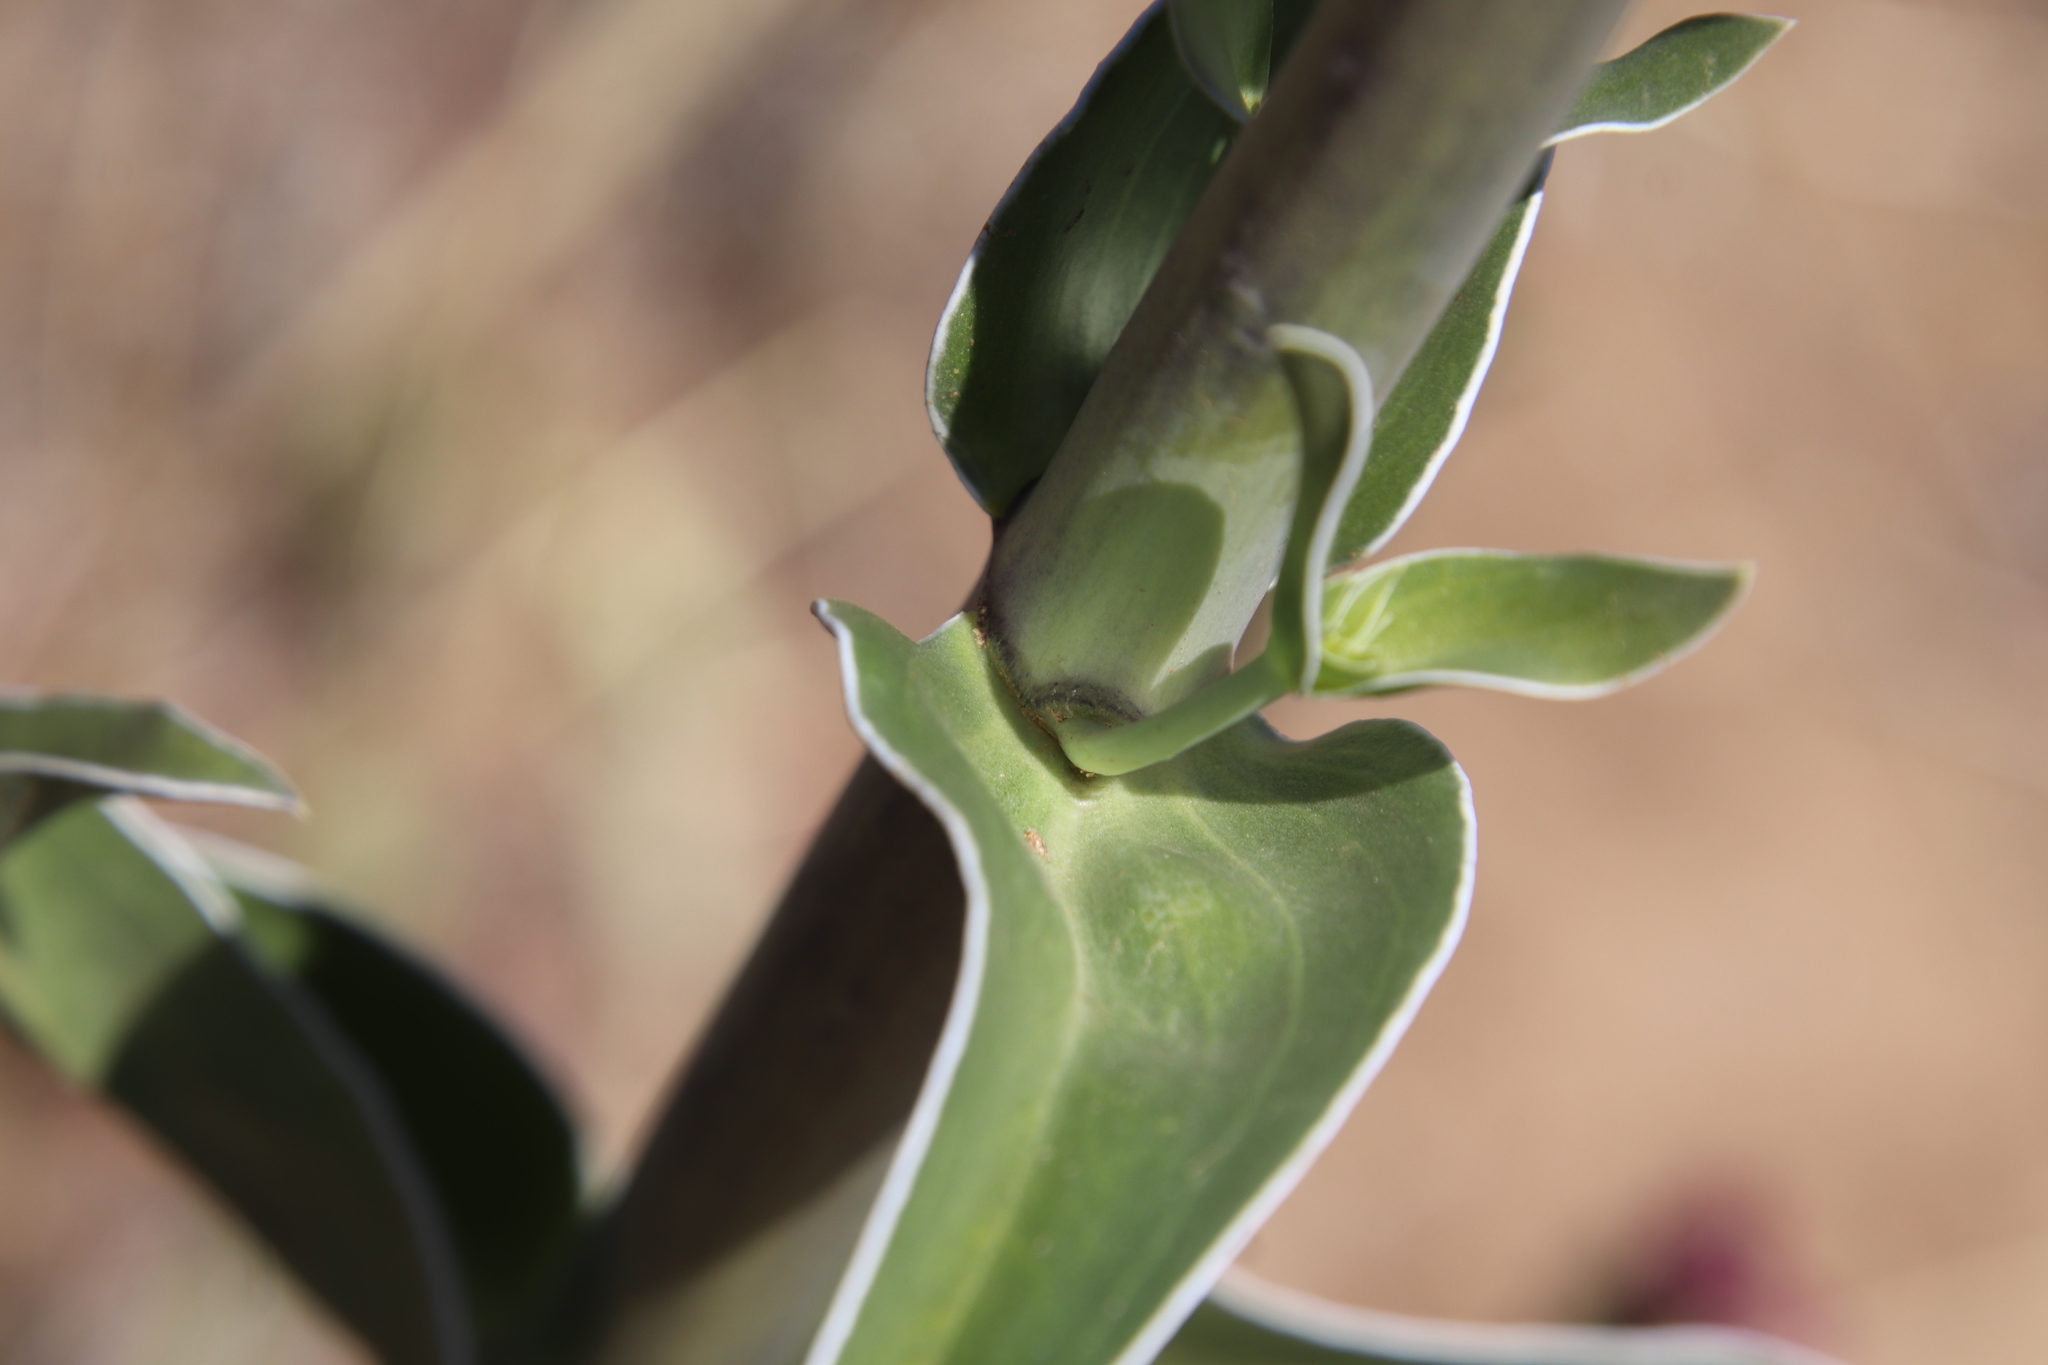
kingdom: Plantae
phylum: Tracheophyta
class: Magnoliopsida
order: Gentianales
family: Gentianaceae
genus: Frasera
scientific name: Frasera parryi
